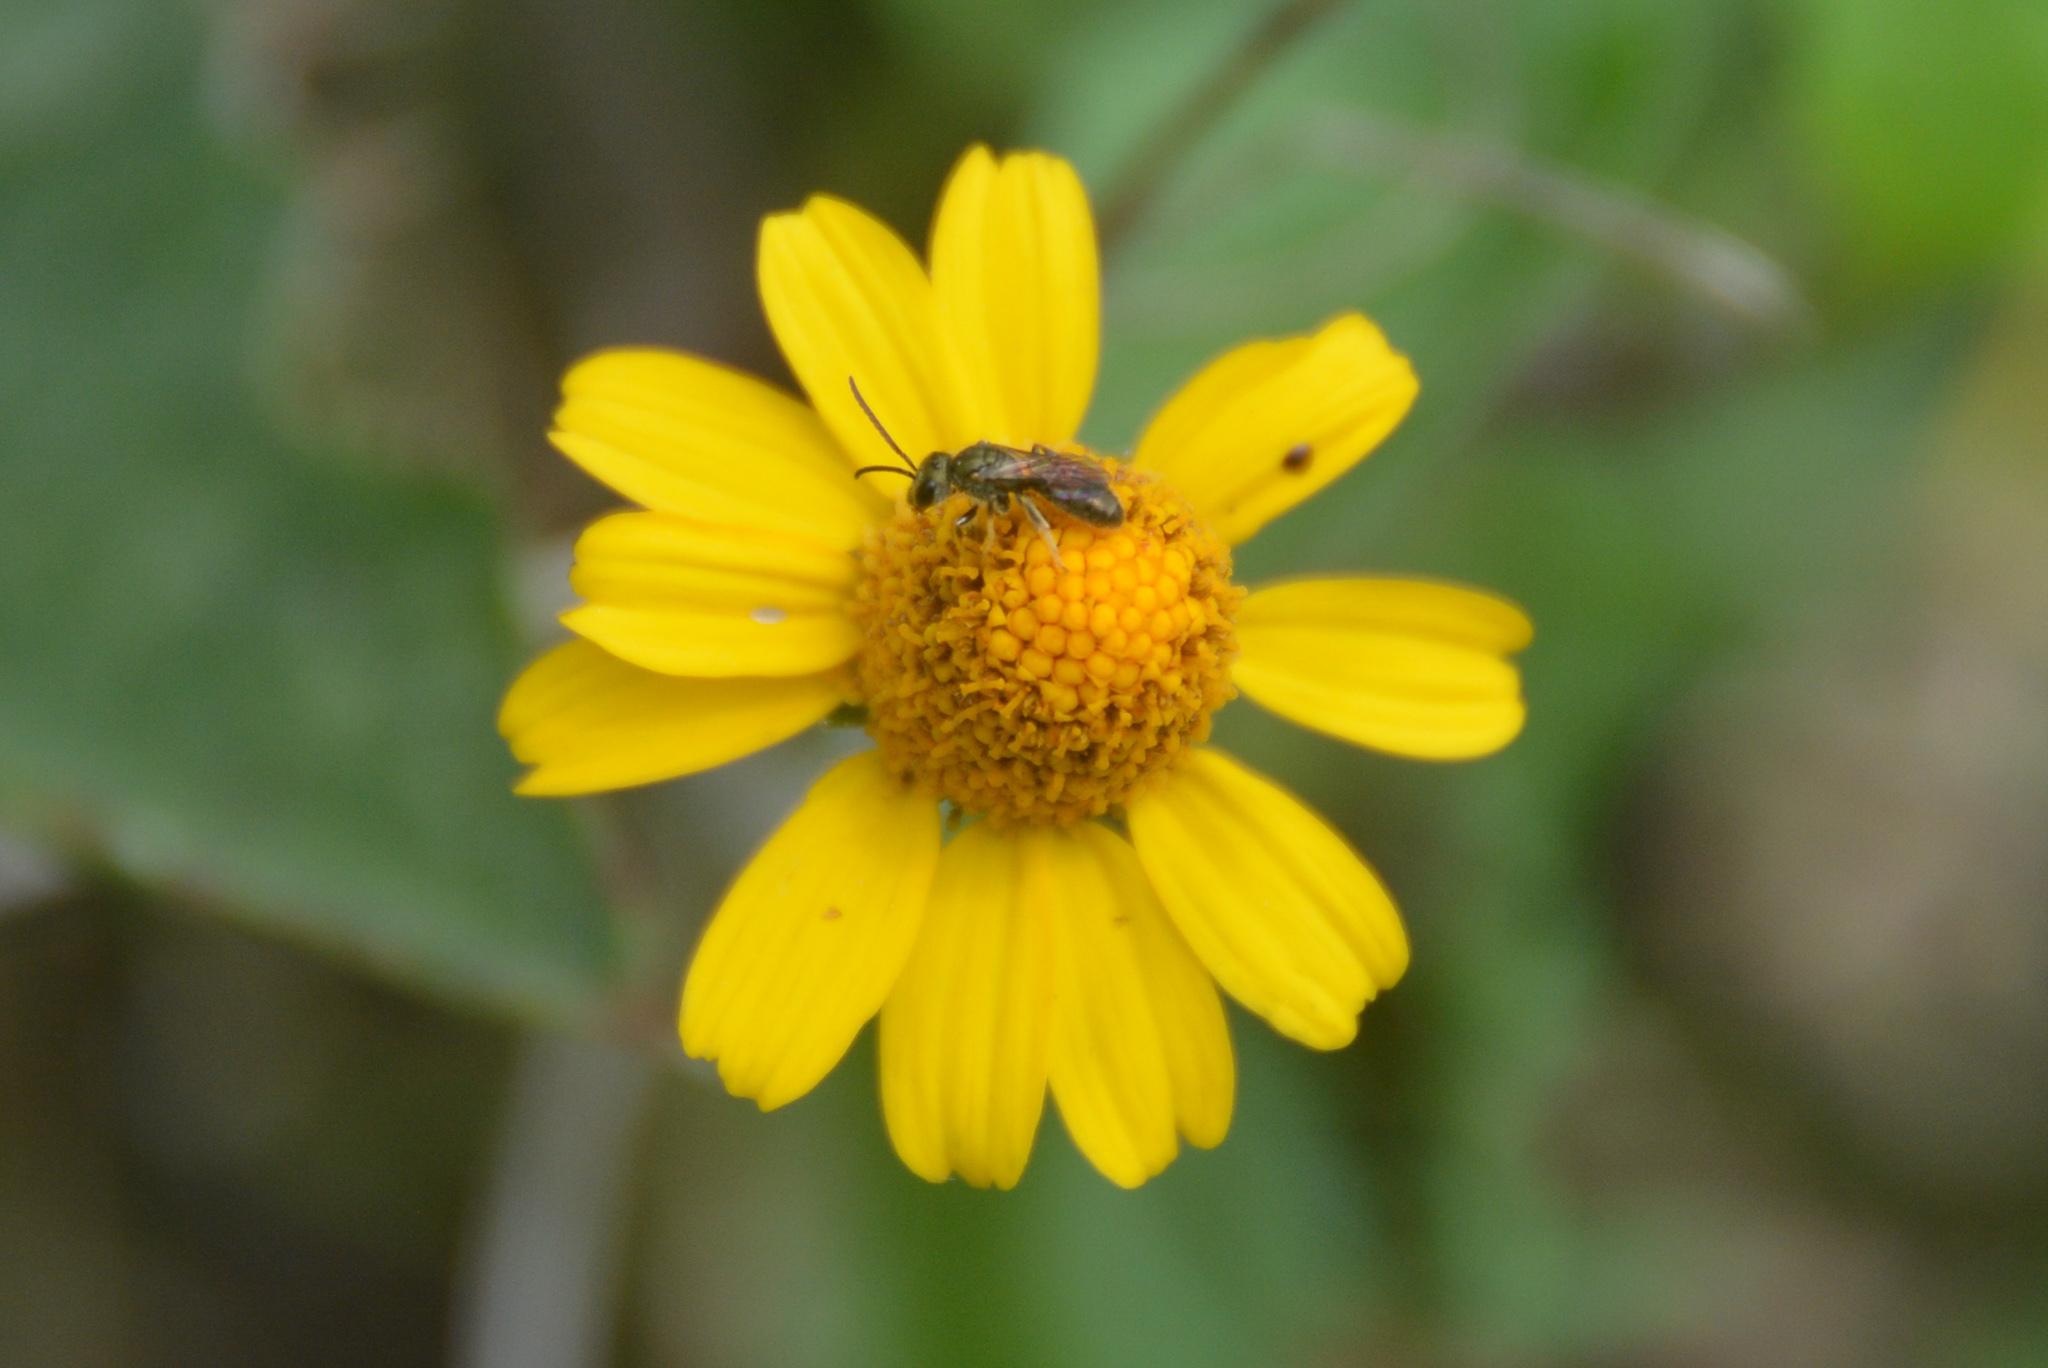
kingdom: Plantae
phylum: Tracheophyta
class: Magnoliopsida
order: Asterales
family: Asteraceae
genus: Acmella
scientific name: Acmella repens
